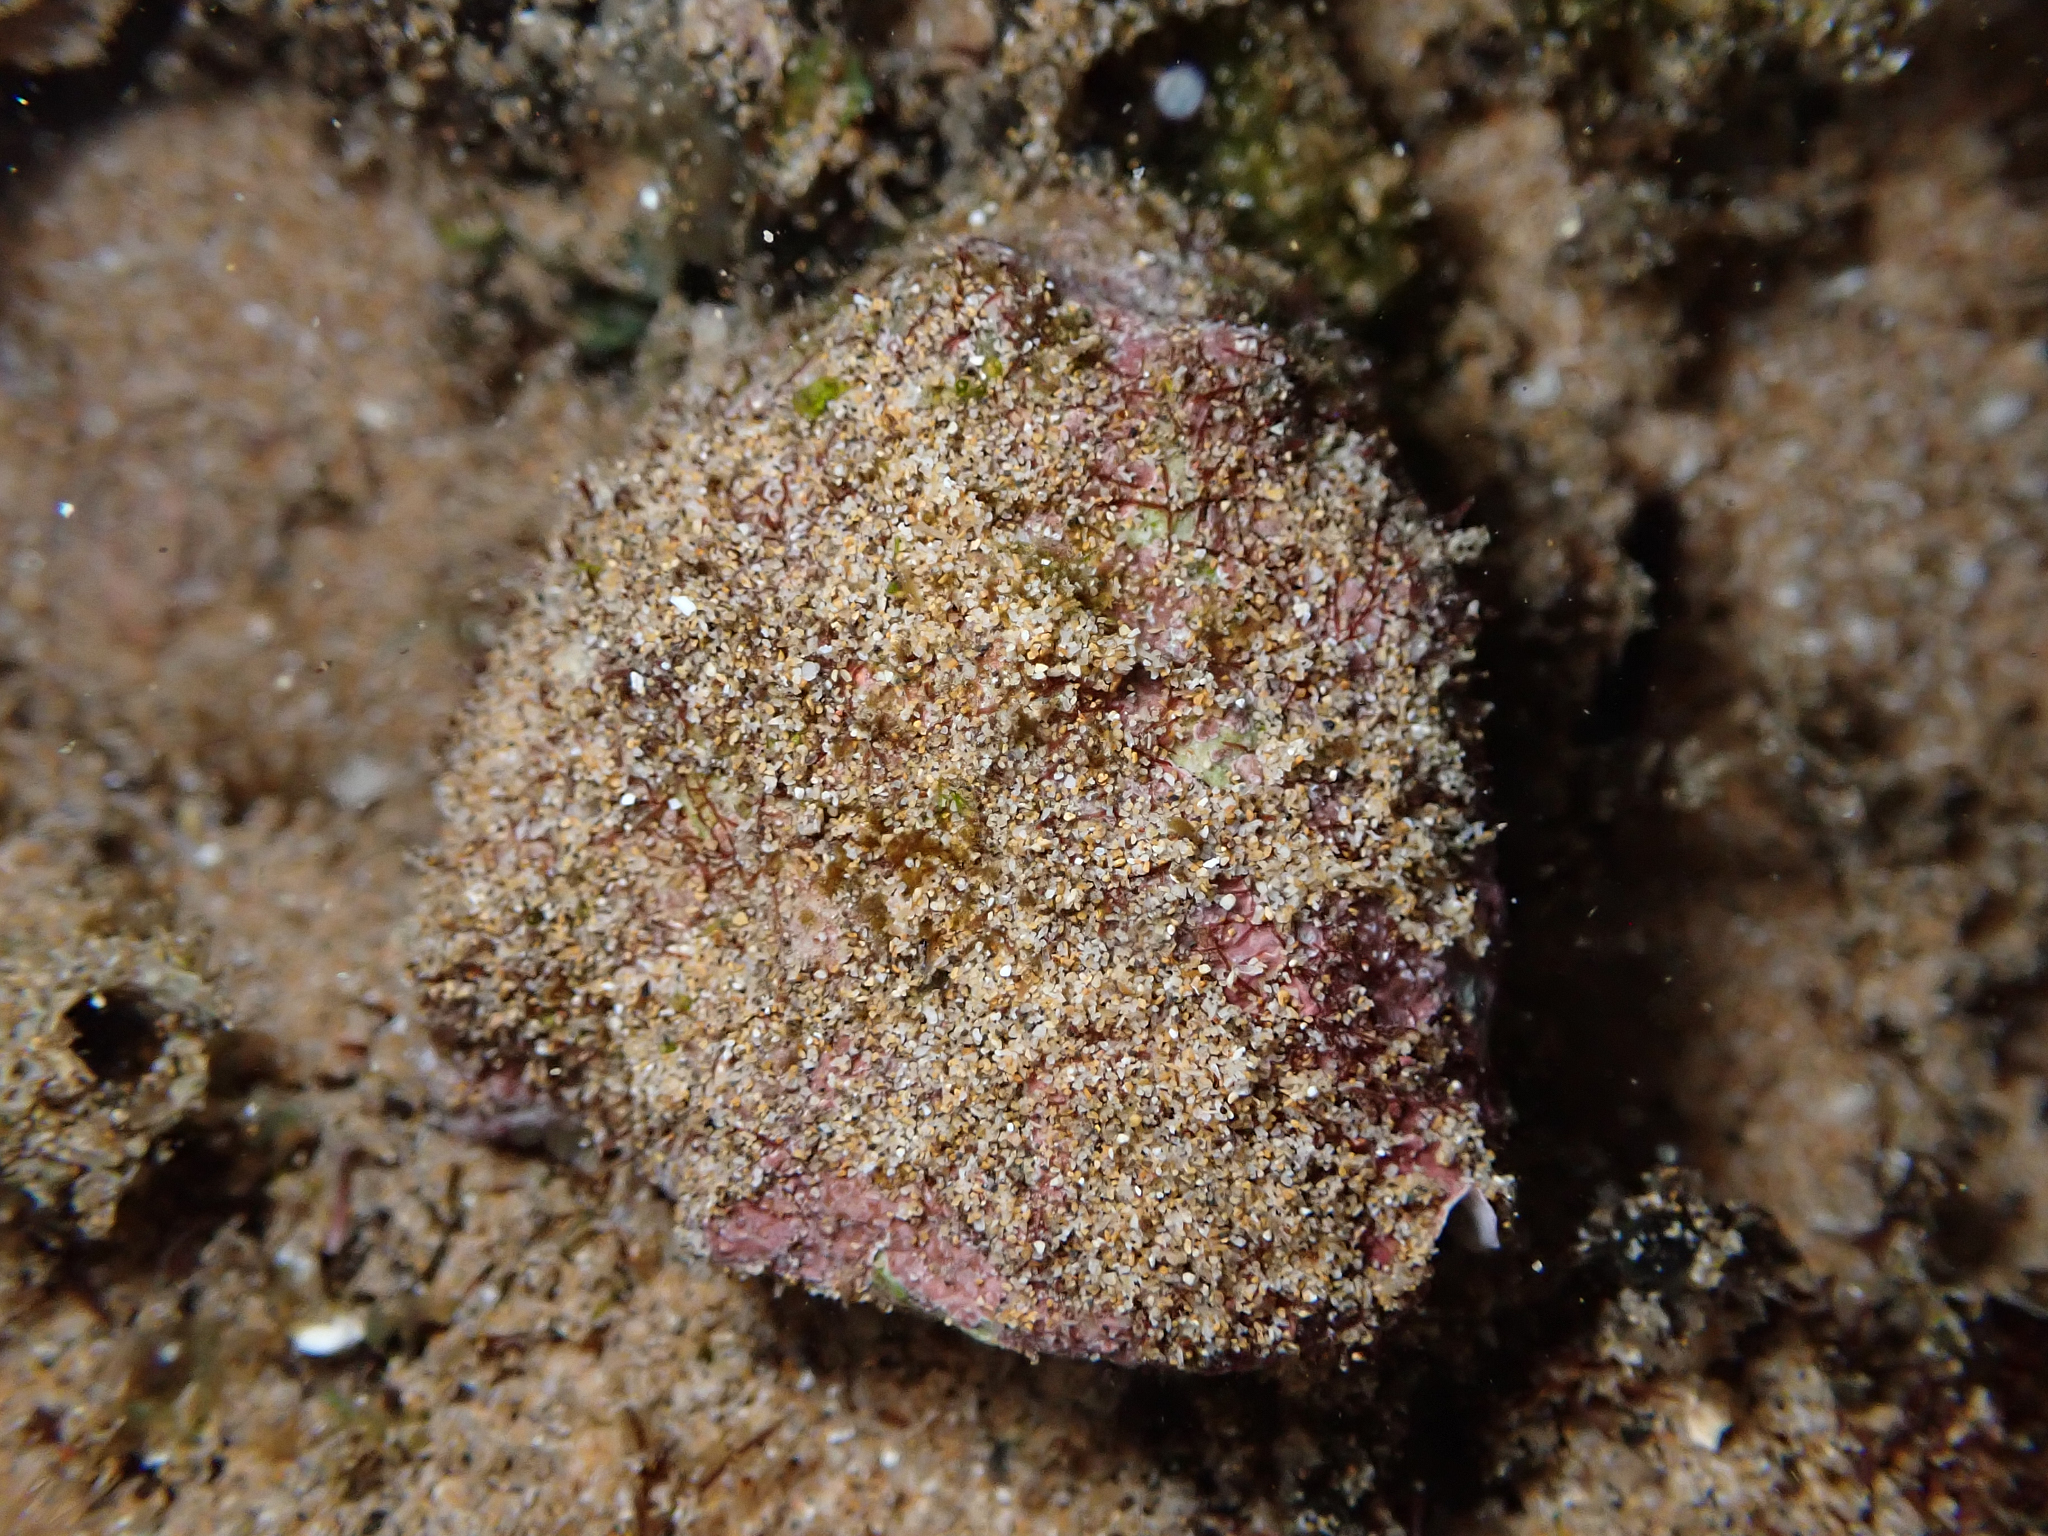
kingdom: Animalia
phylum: Mollusca
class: Gastropoda
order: Neogastropoda
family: Muricidae
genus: Drupa
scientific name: Drupa morum
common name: Purple drupe
